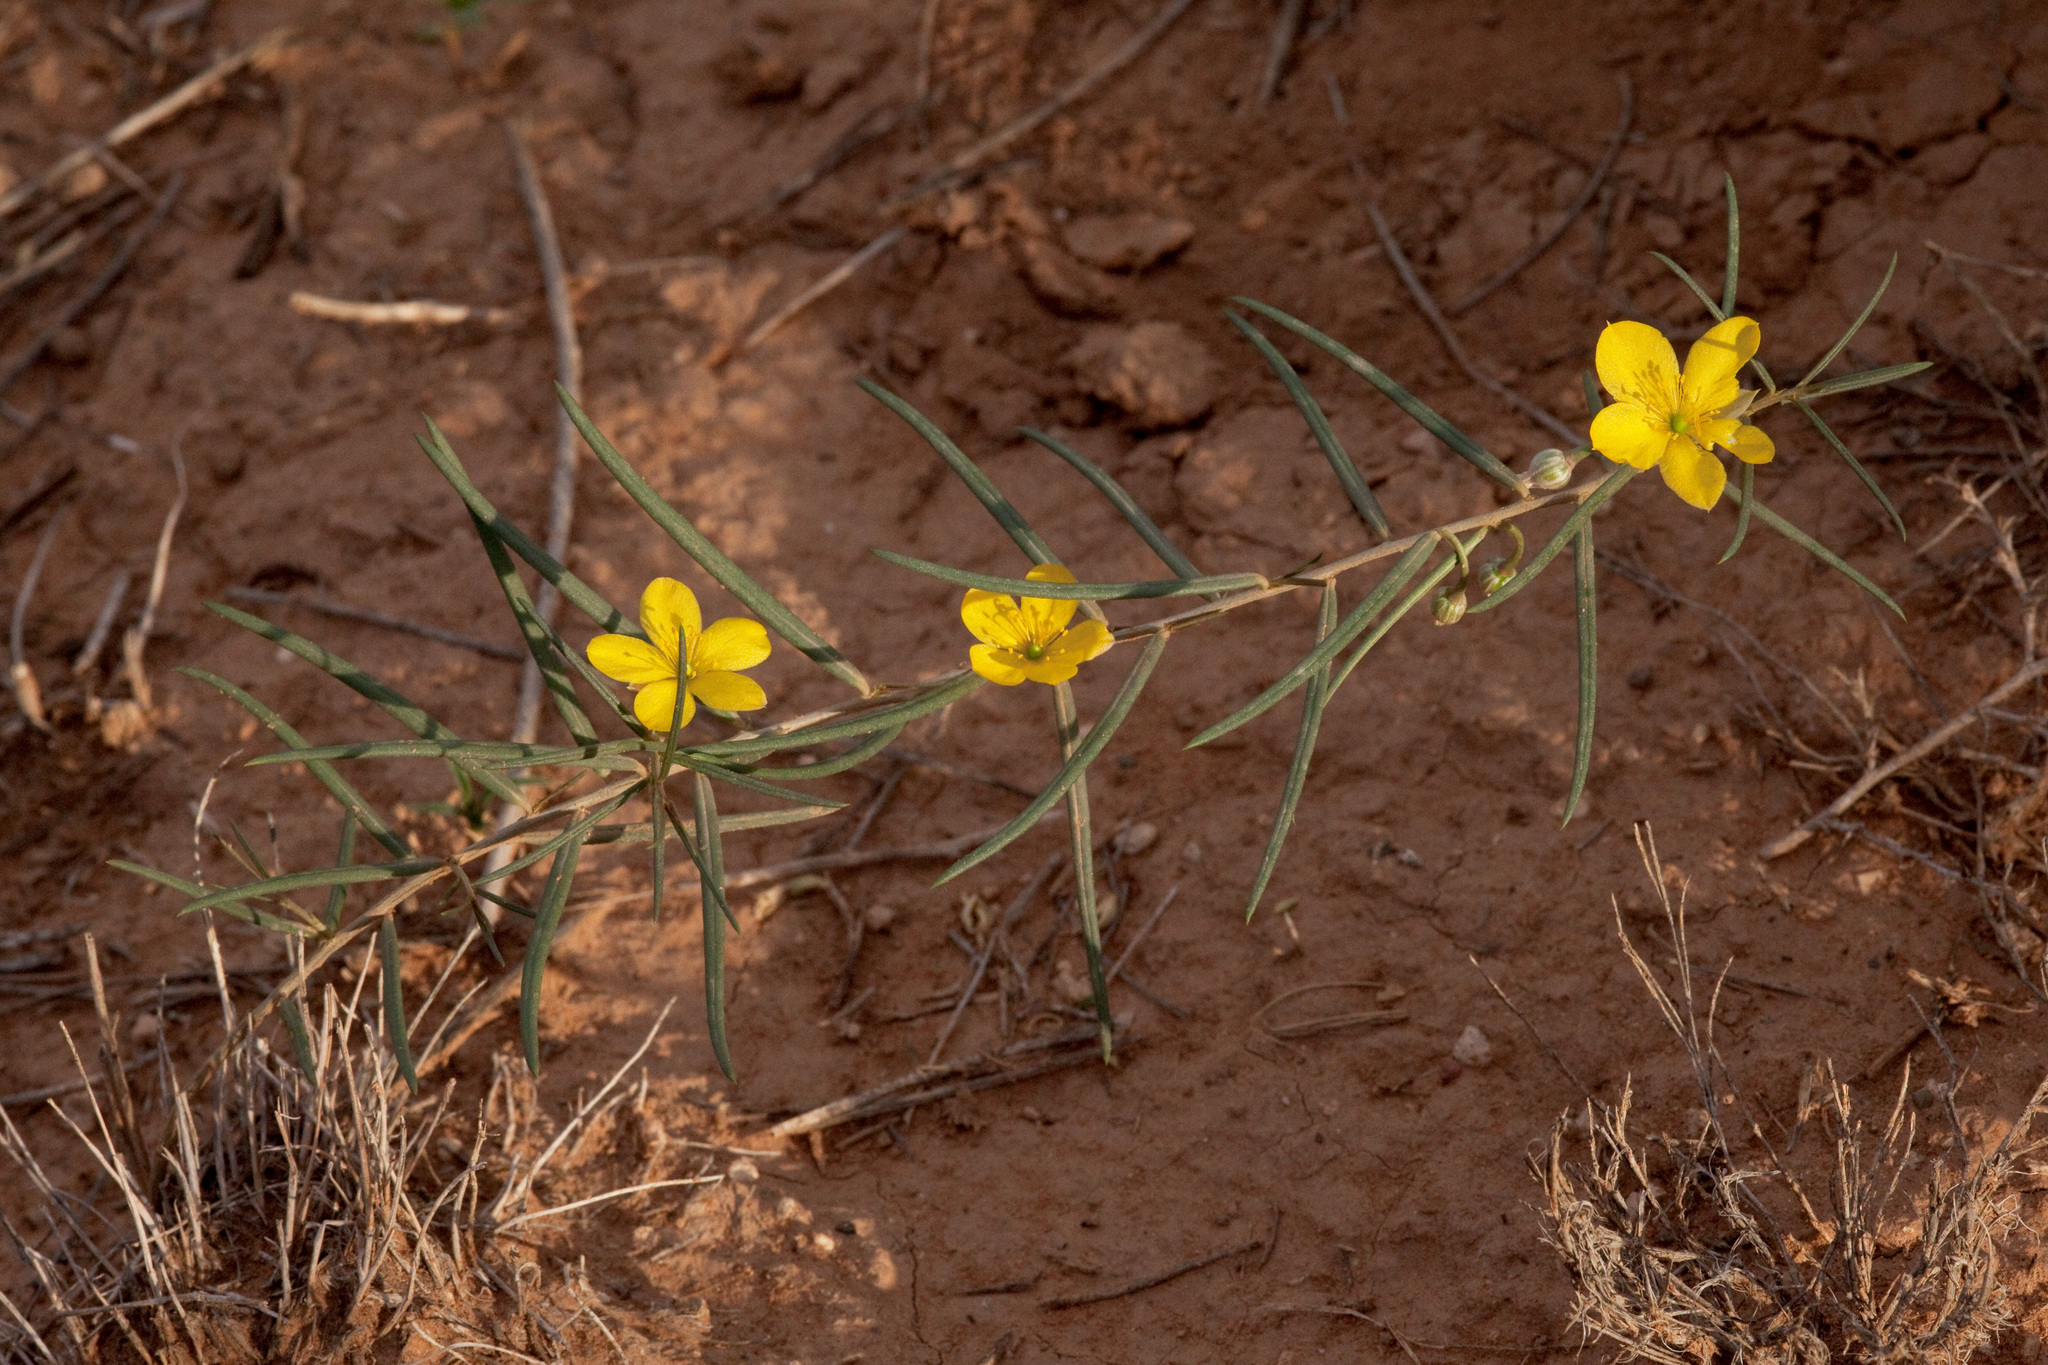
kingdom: Plantae
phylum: Tracheophyta
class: Magnoliopsida
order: Caryophyllales
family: Talinaceae
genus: Talinum
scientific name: Talinum polygaloides
